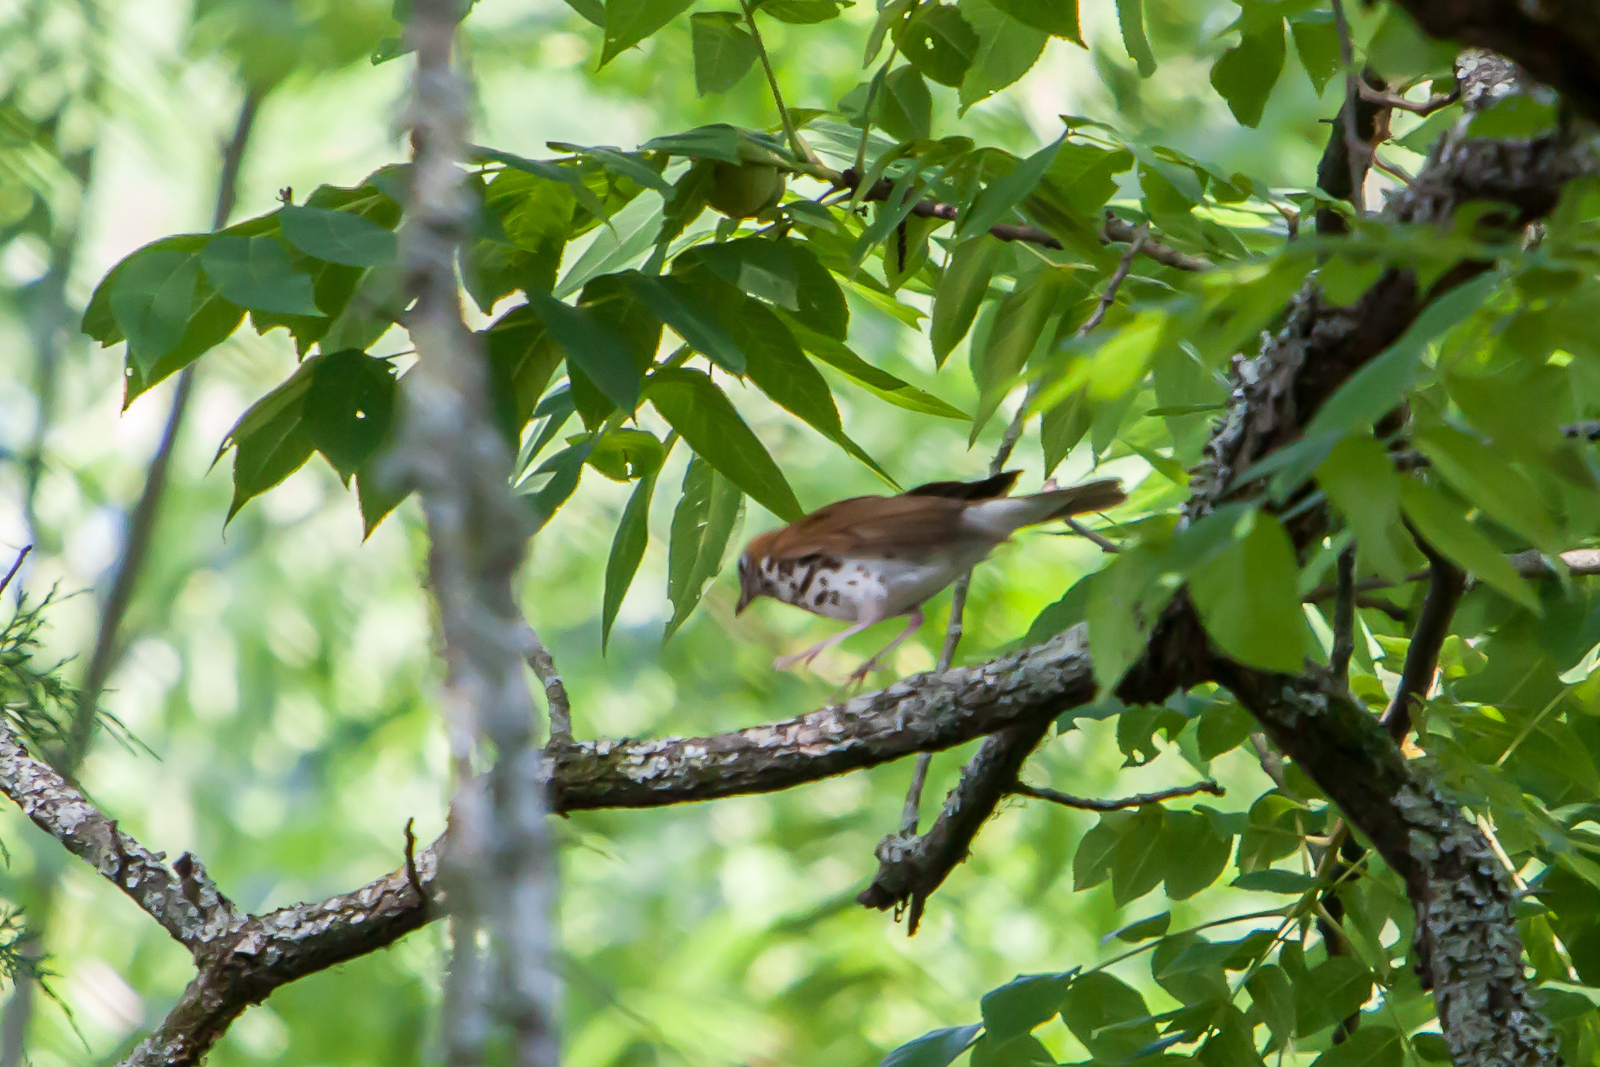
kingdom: Animalia
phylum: Chordata
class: Aves
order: Passeriformes
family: Turdidae
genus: Hylocichla
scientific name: Hylocichla mustelina
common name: Wood thrush
